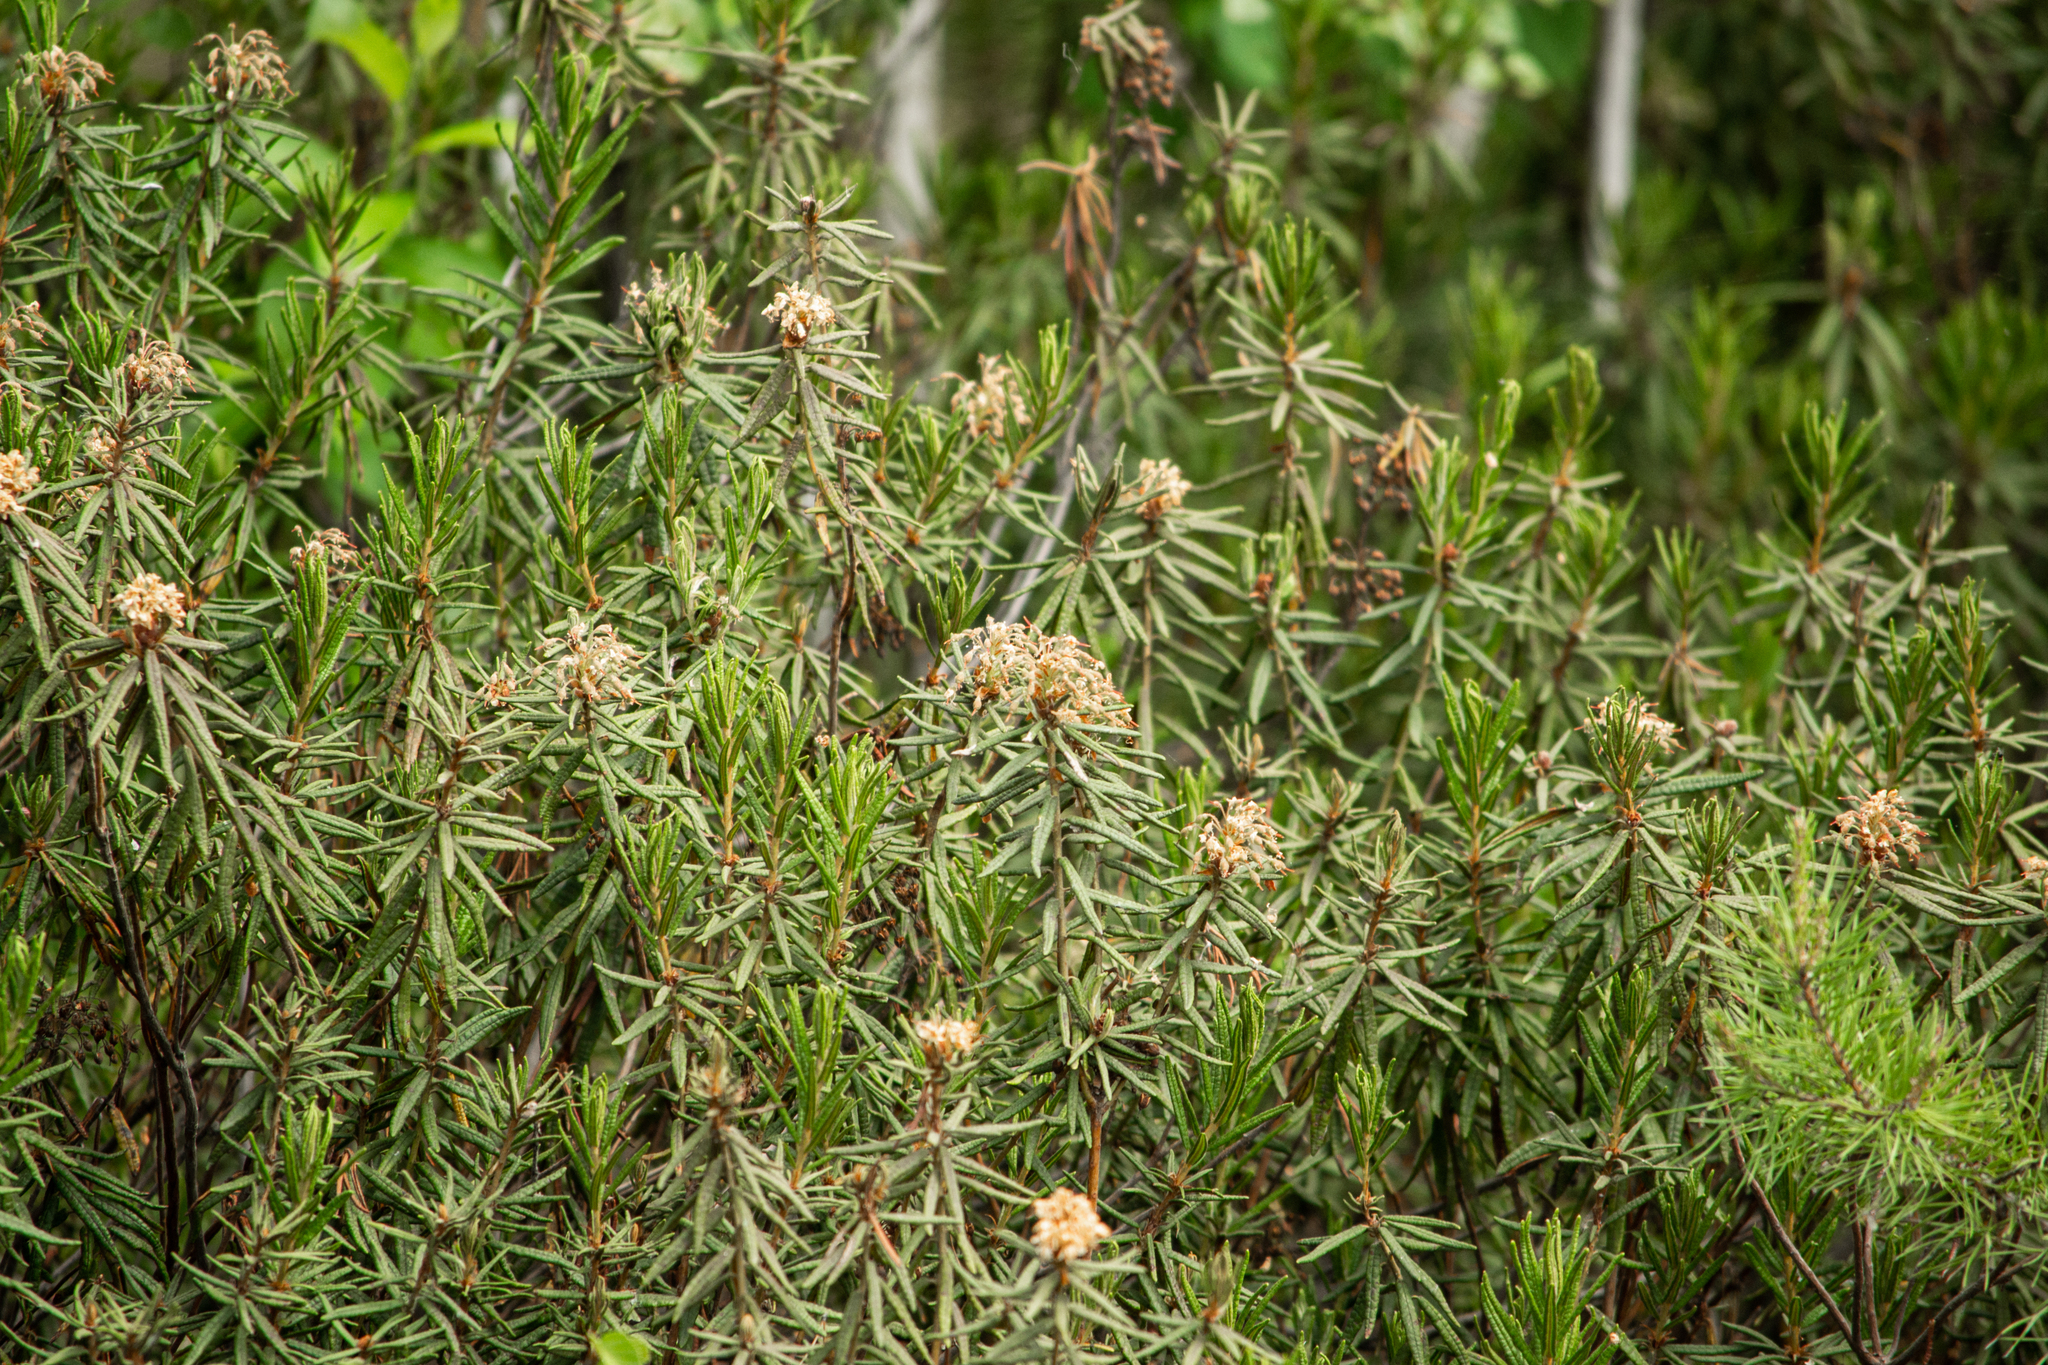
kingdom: Plantae
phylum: Tracheophyta
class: Magnoliopsida
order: Ericales
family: Ericaceae
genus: Rhododendron
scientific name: Rhododendron tomentosum
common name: Marsh labrador tea
